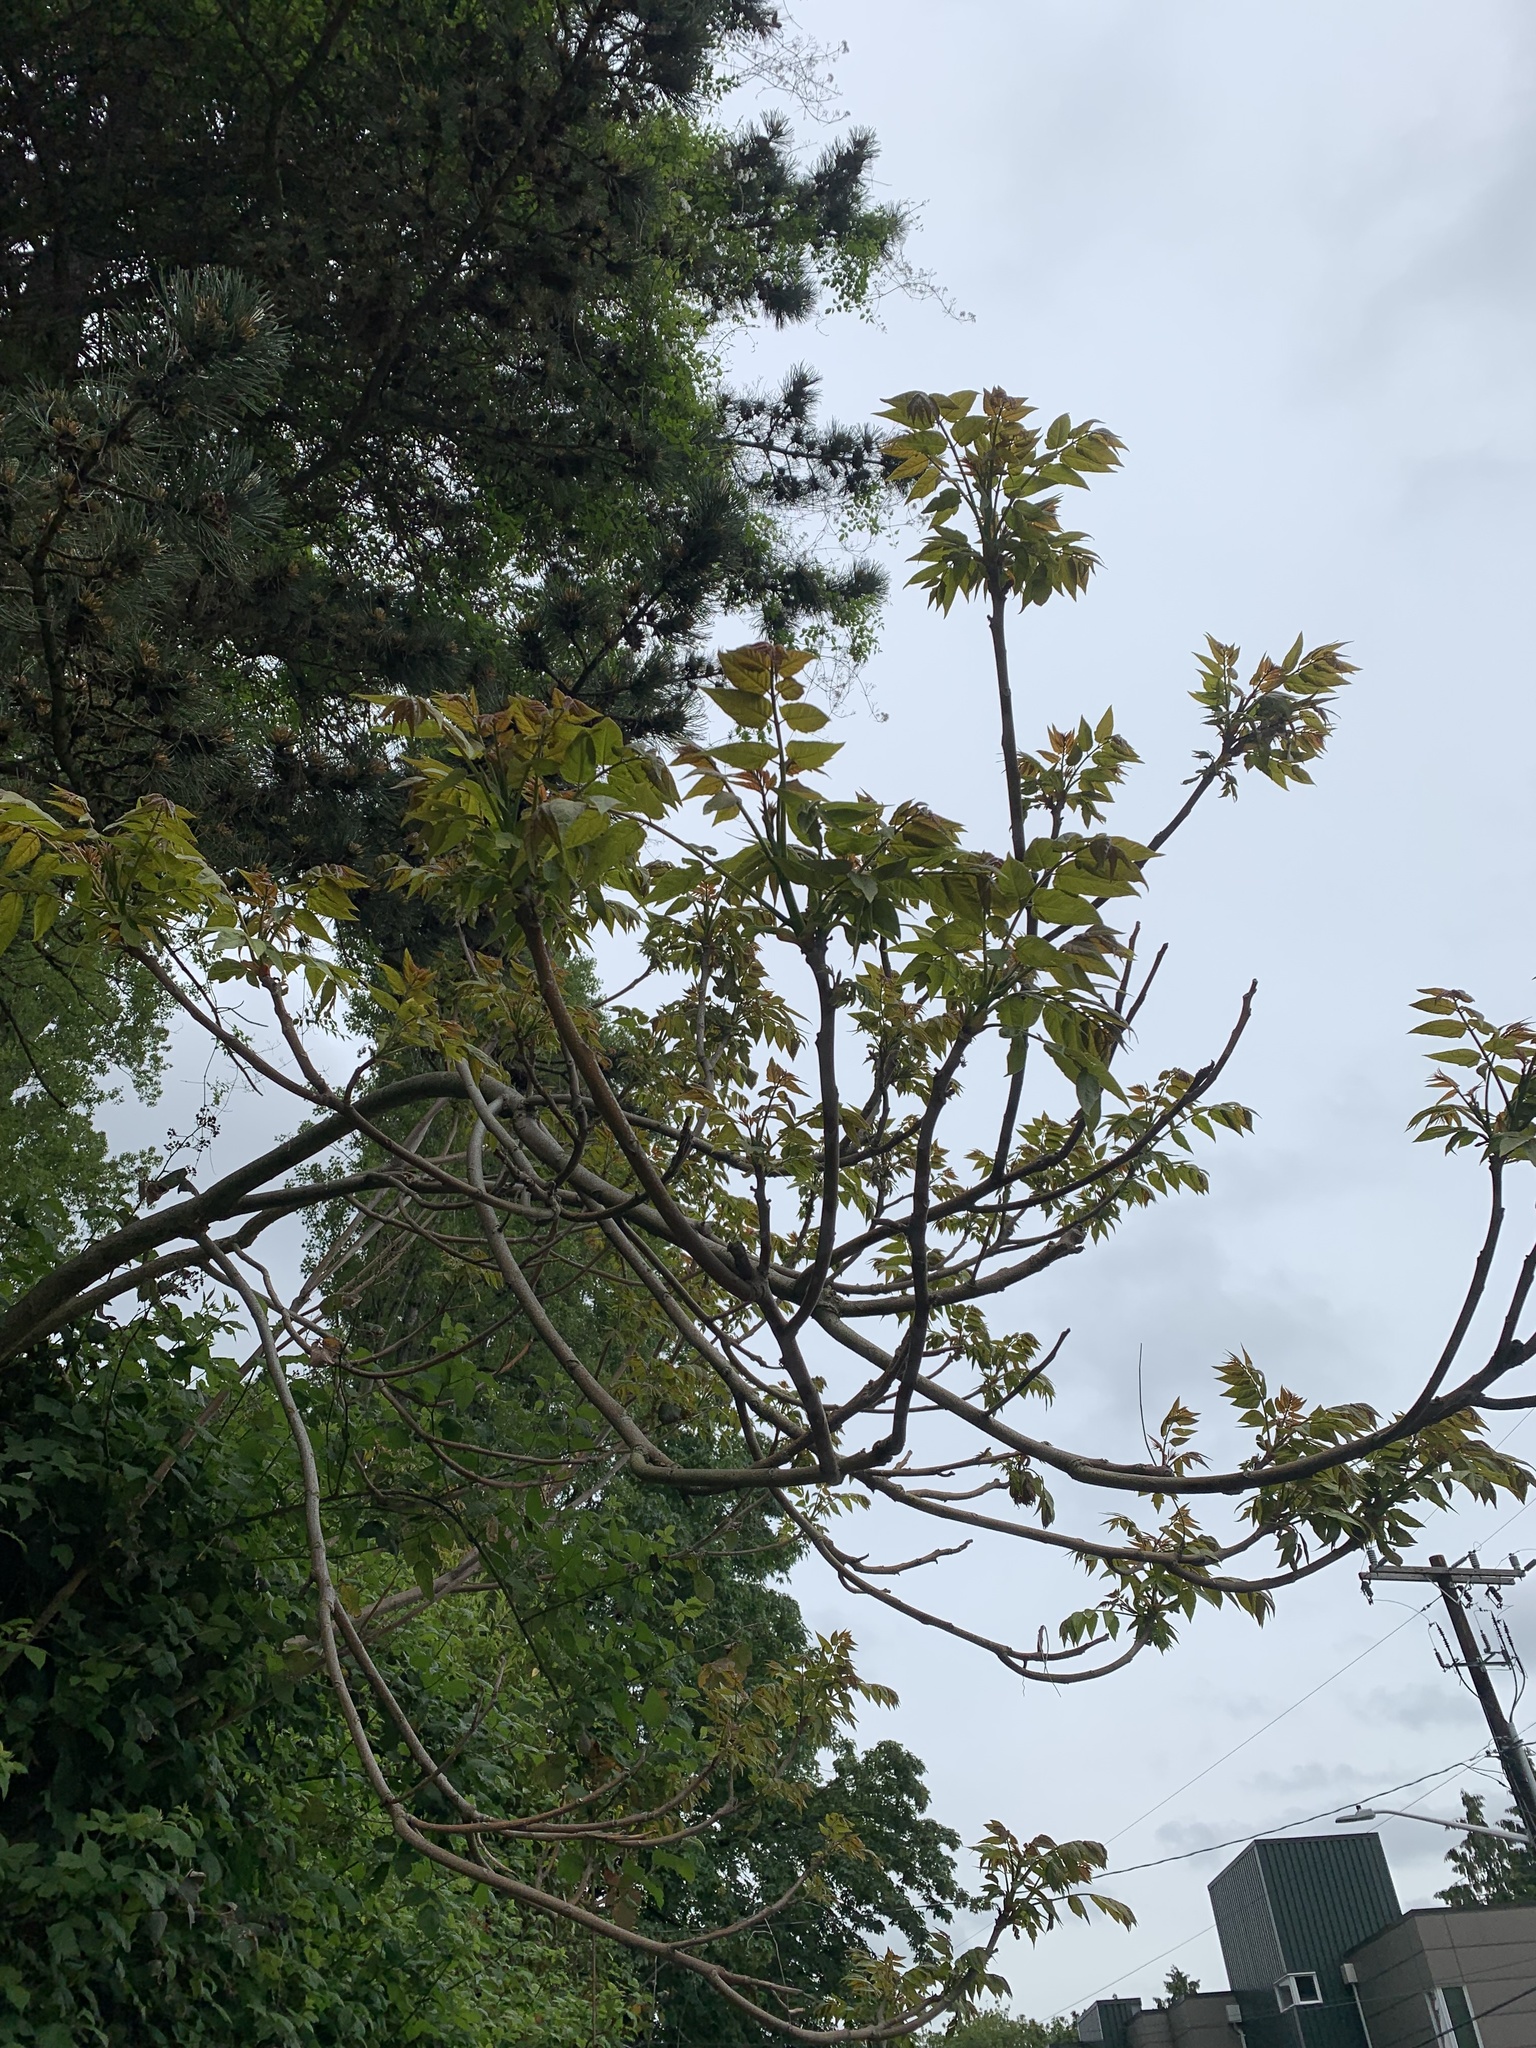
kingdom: Plantae
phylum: Tracheophyta
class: Magnoliopsida
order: Sapindales
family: Simaroubaceae
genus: Ailanthus
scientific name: Ailanthus altissima
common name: Tree-of-heaven
